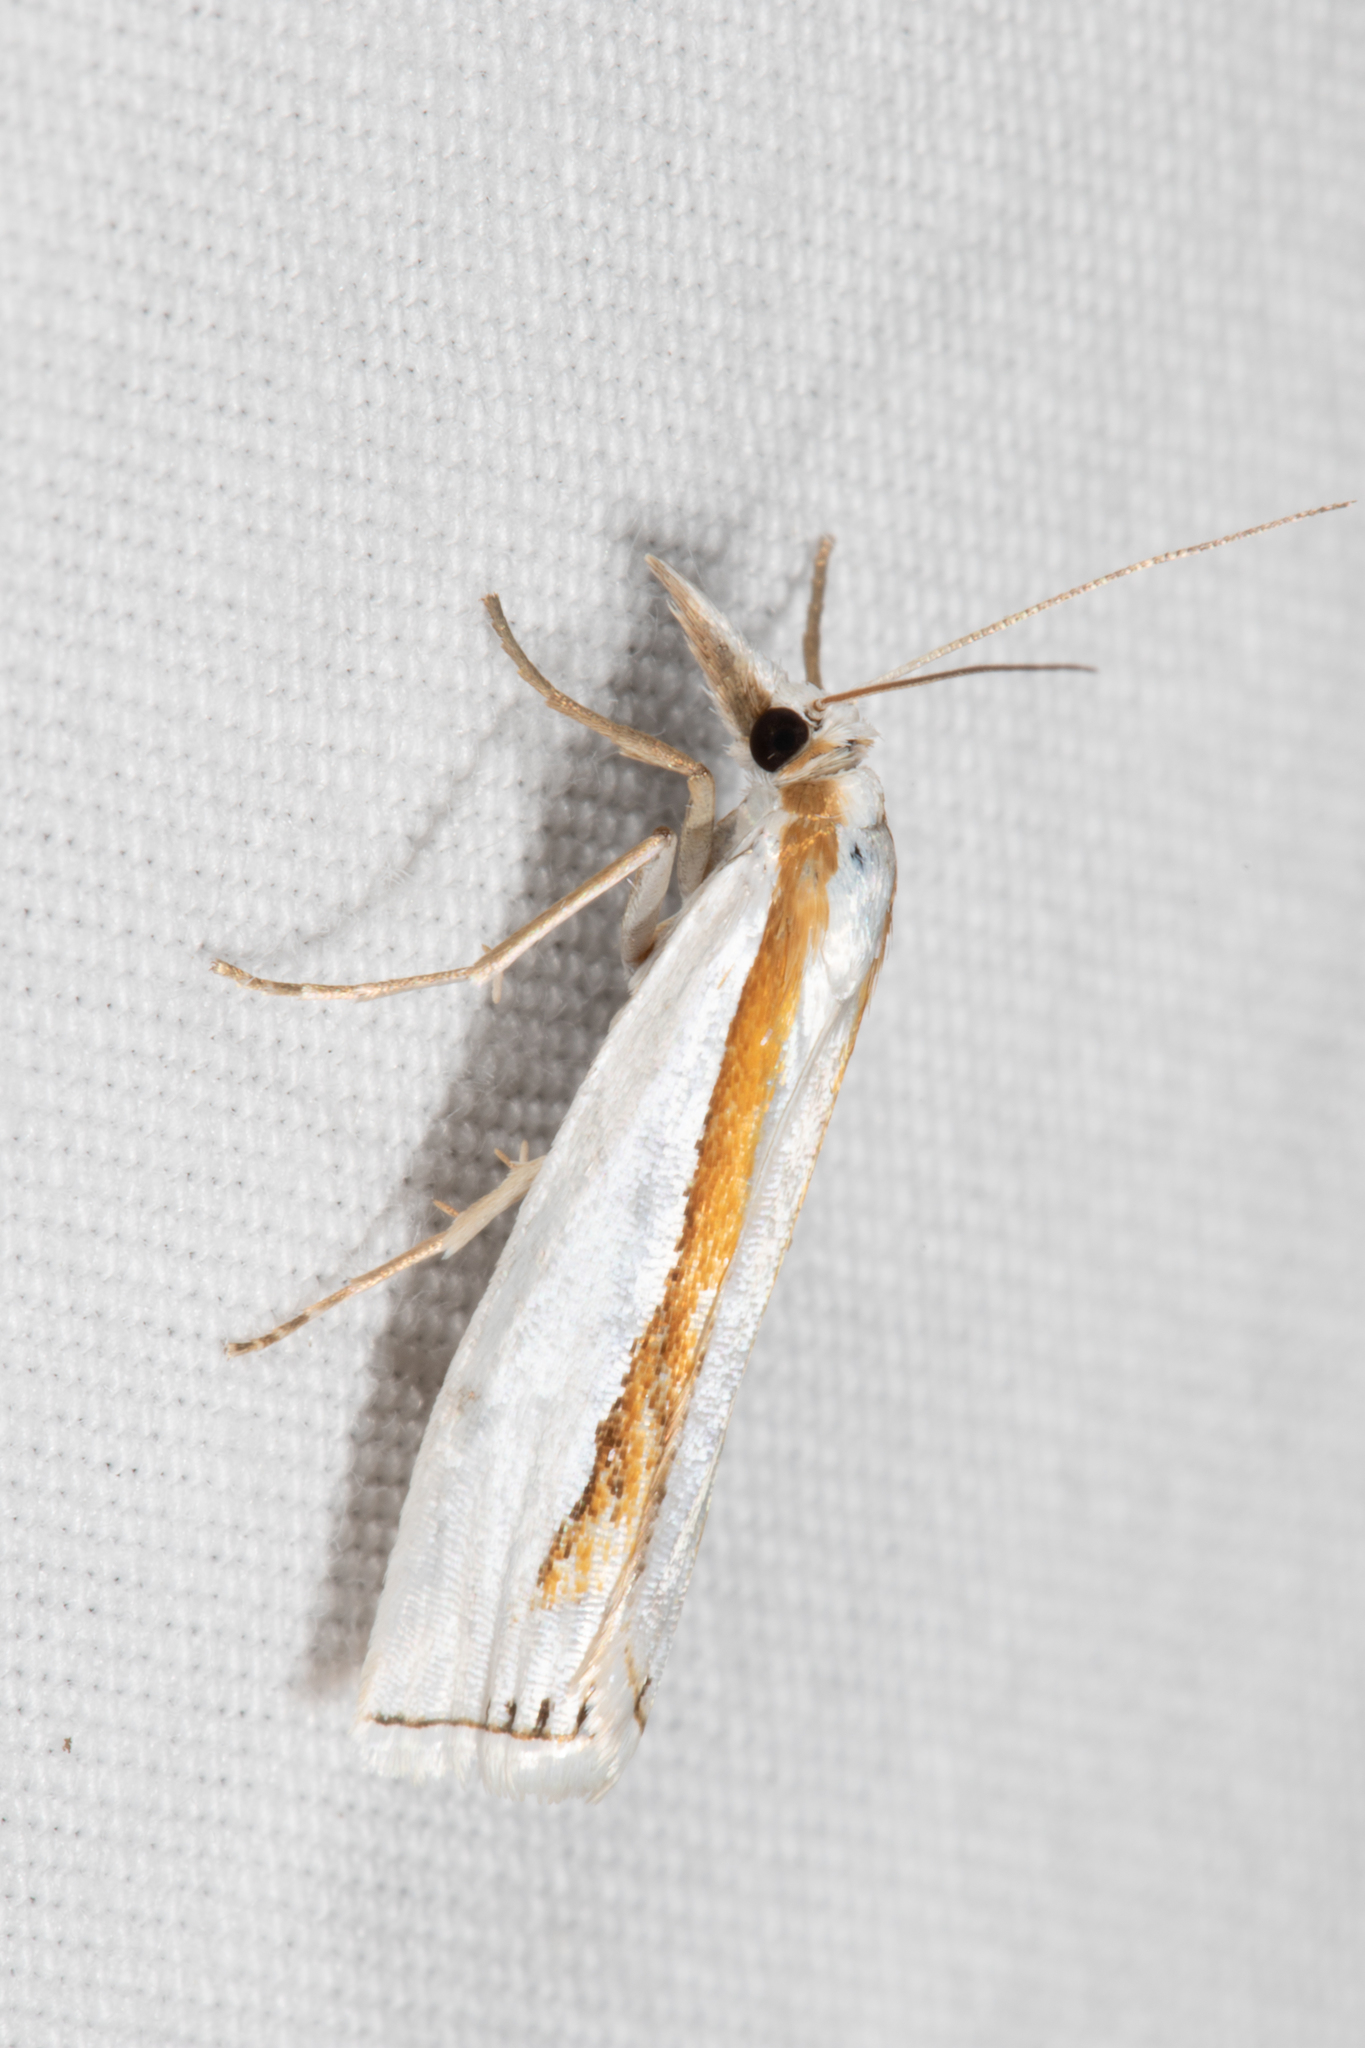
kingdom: Animalia
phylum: Arthropoda
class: Insecta
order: Lepidoptera
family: Crambidae
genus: Crambus
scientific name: Crambus girardellus
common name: Girard's grass-veneer
